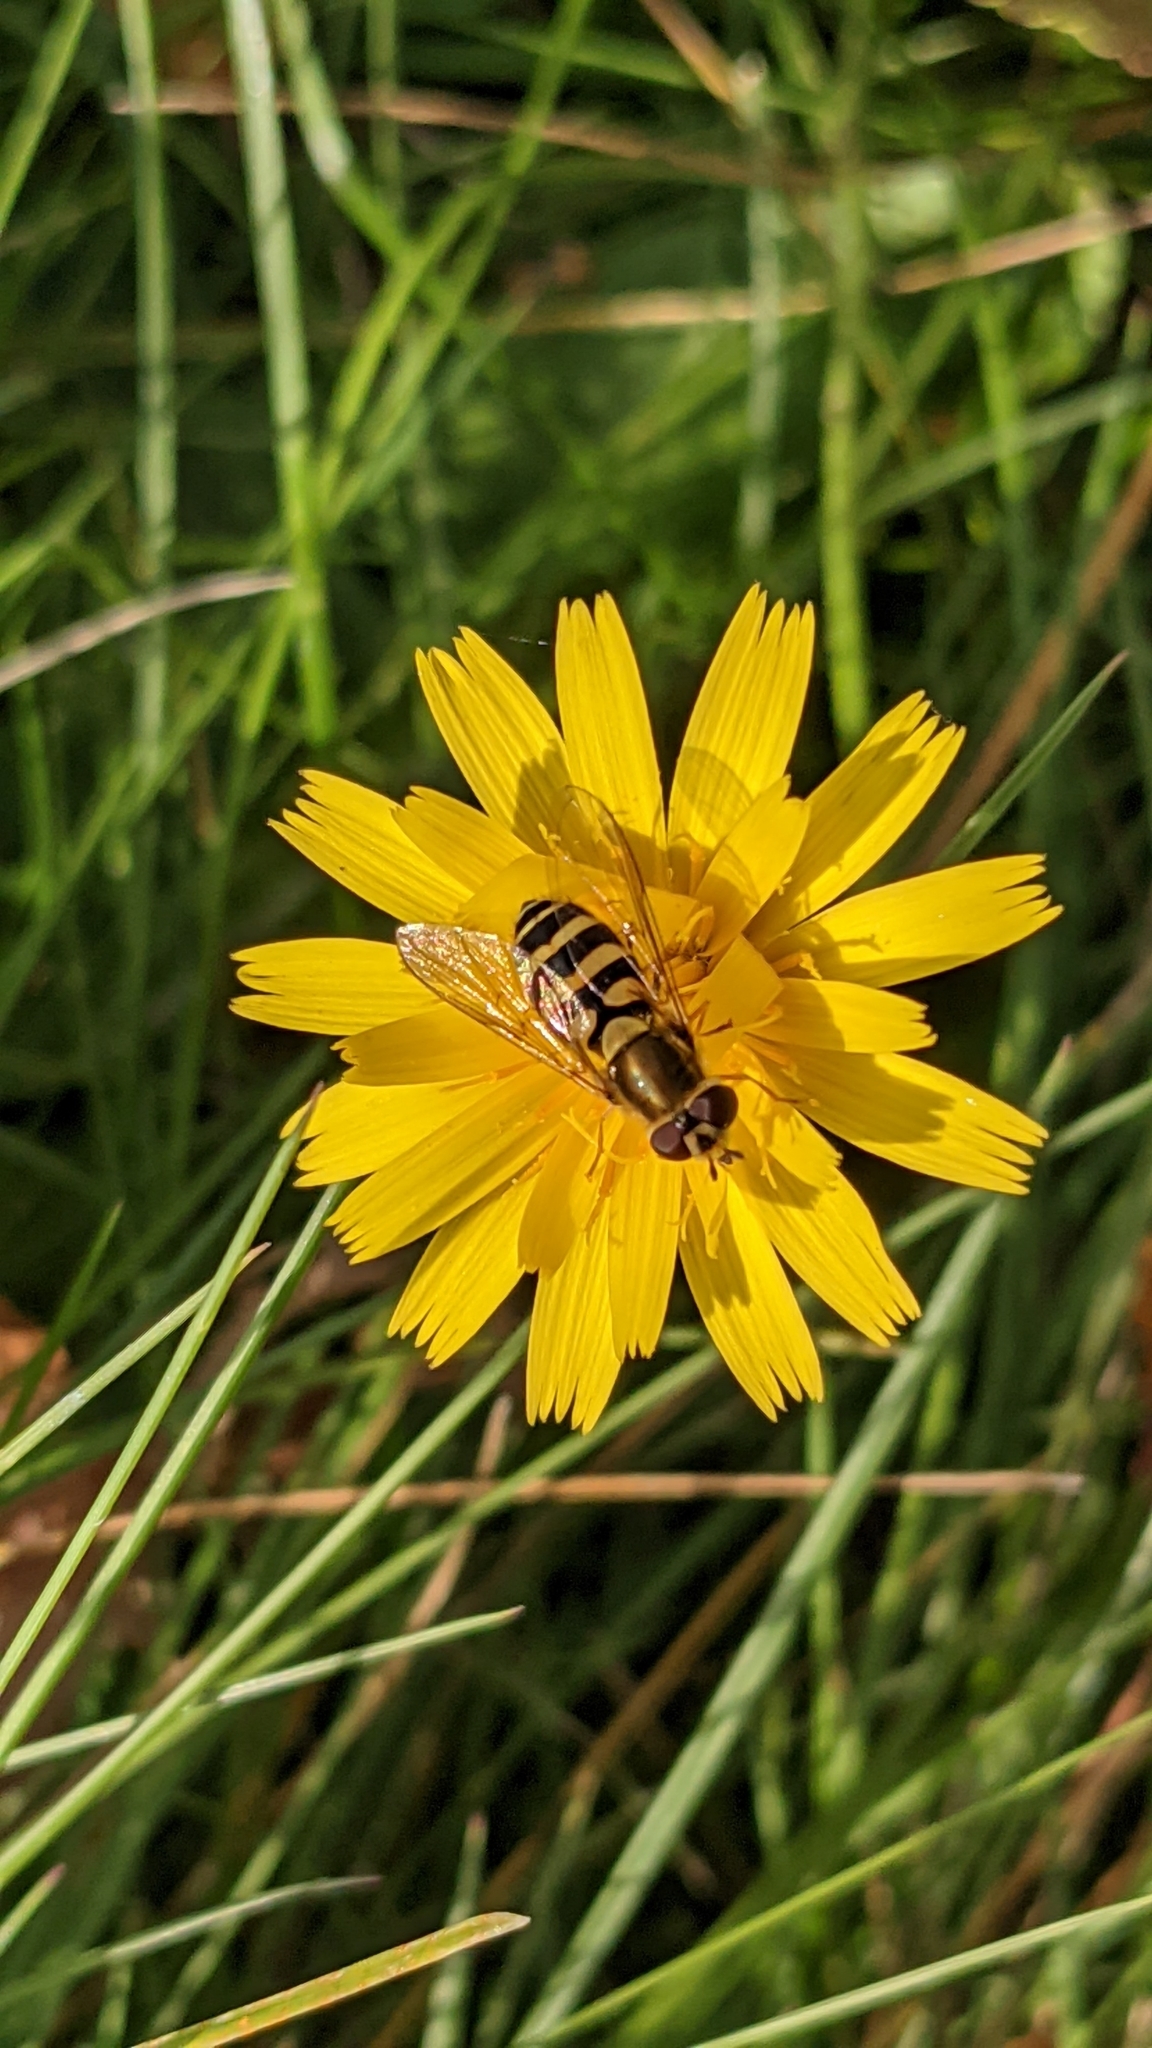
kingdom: Animalia
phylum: Arthropoda
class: Insecta
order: Diptera
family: Syrphidae
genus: Syrphus
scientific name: Syrphus
